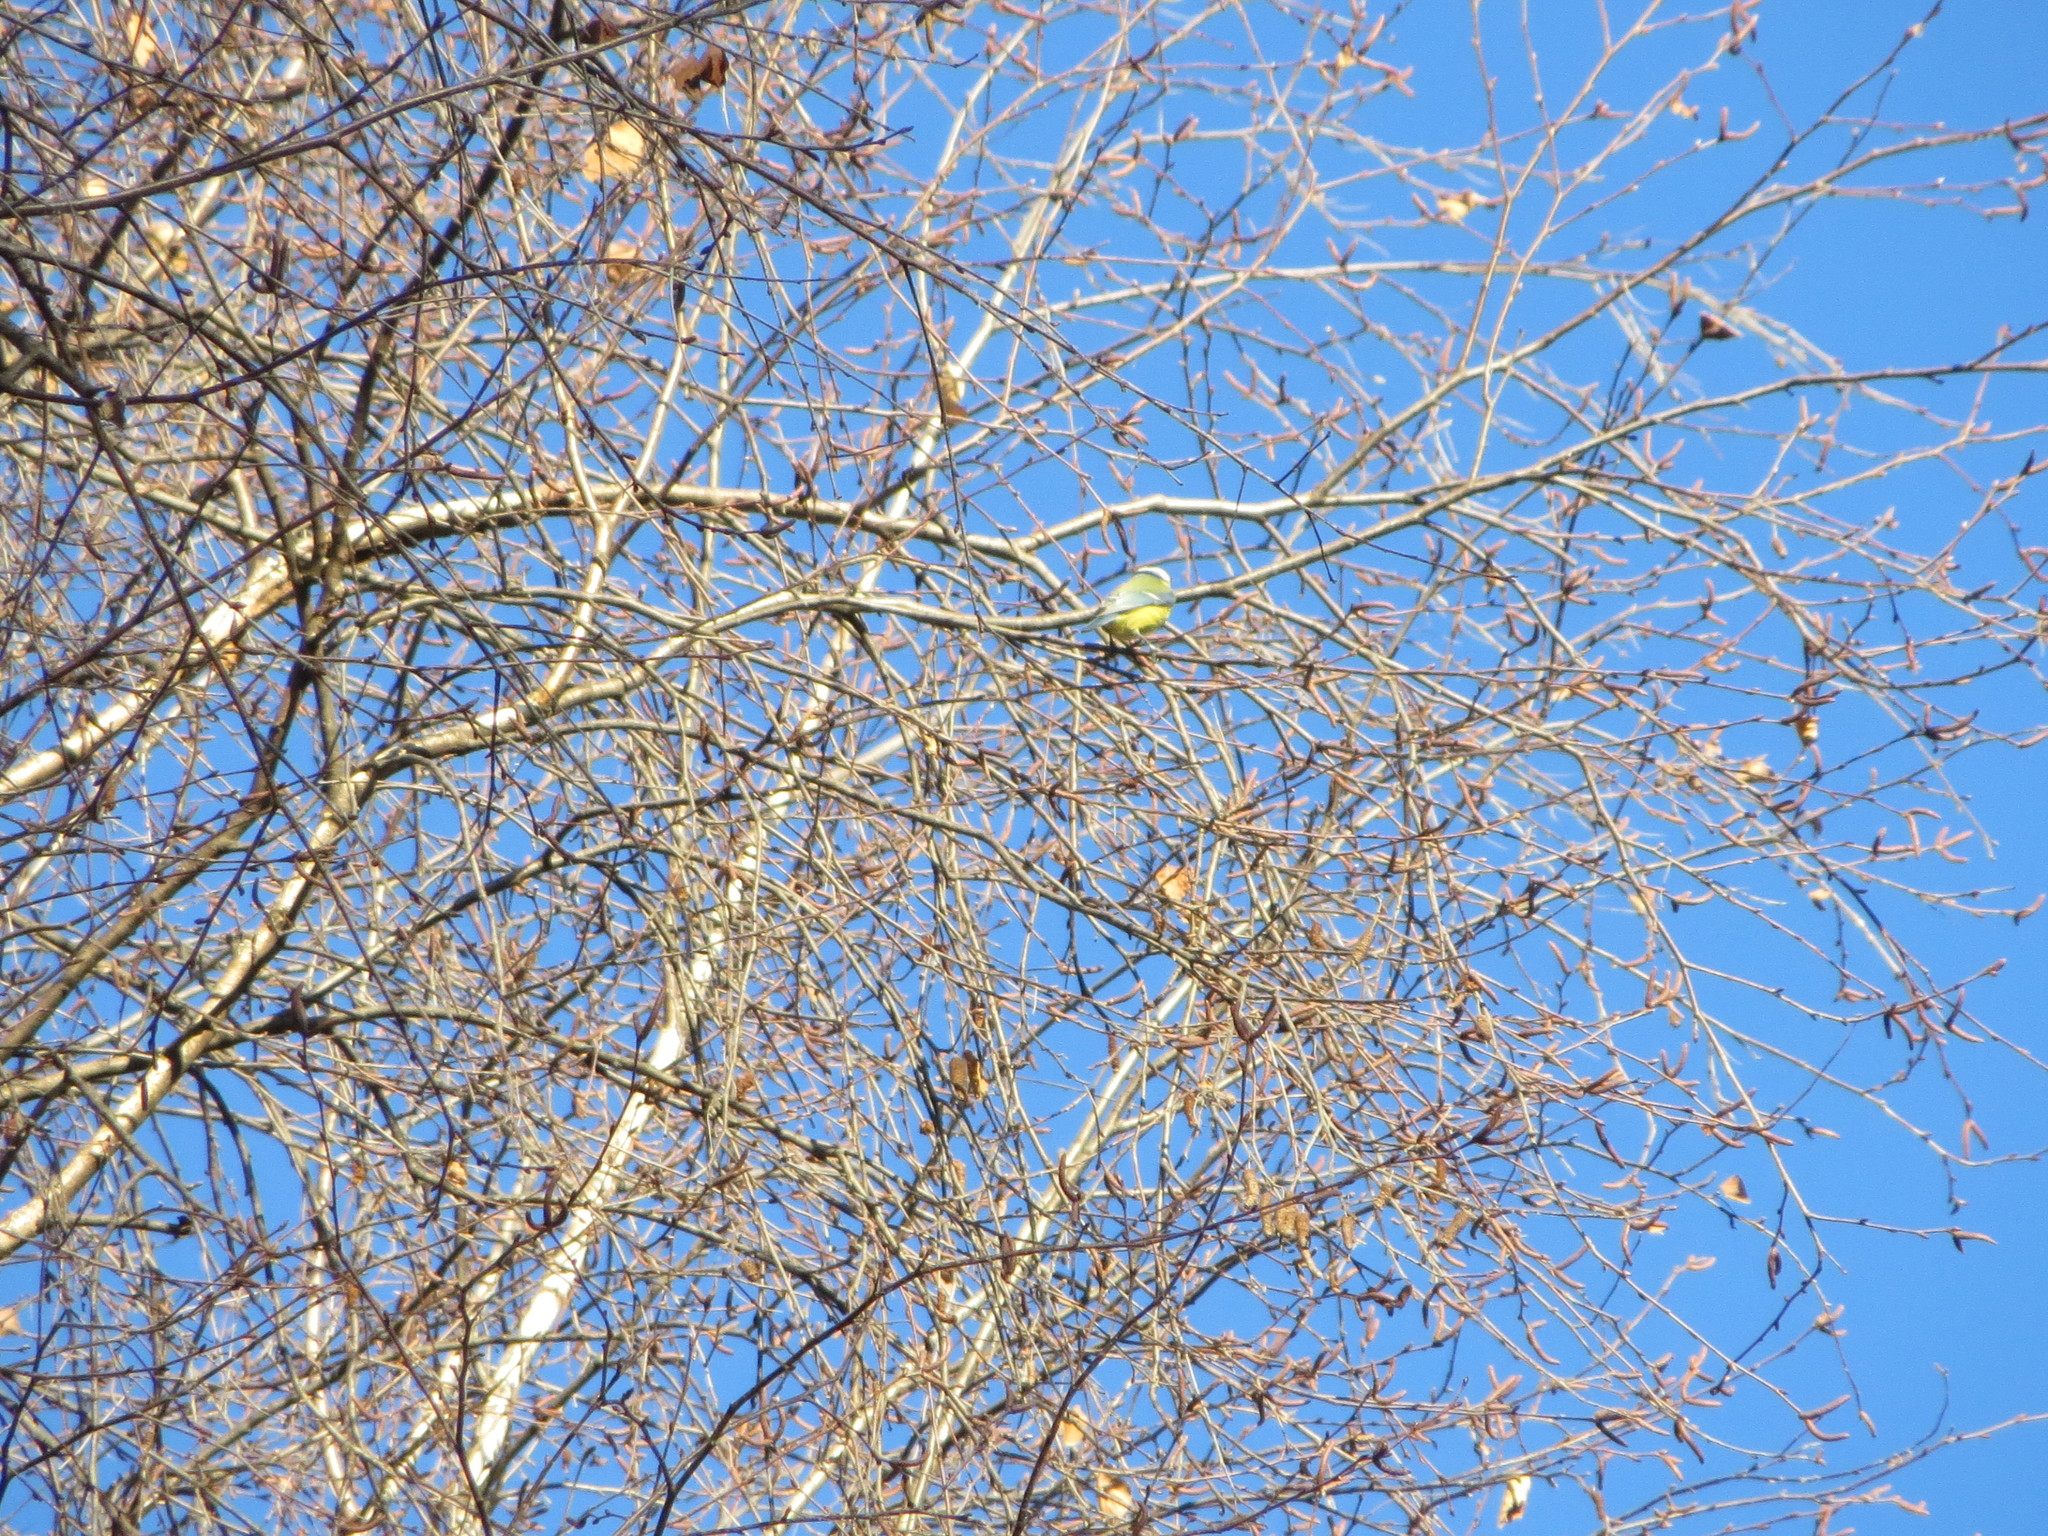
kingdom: Animalia
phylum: Chordata
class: Aves
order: Passeriformes
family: Paridae
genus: Cyanistes
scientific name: Cyanistes caeruleus
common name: Eurasian blue tit
